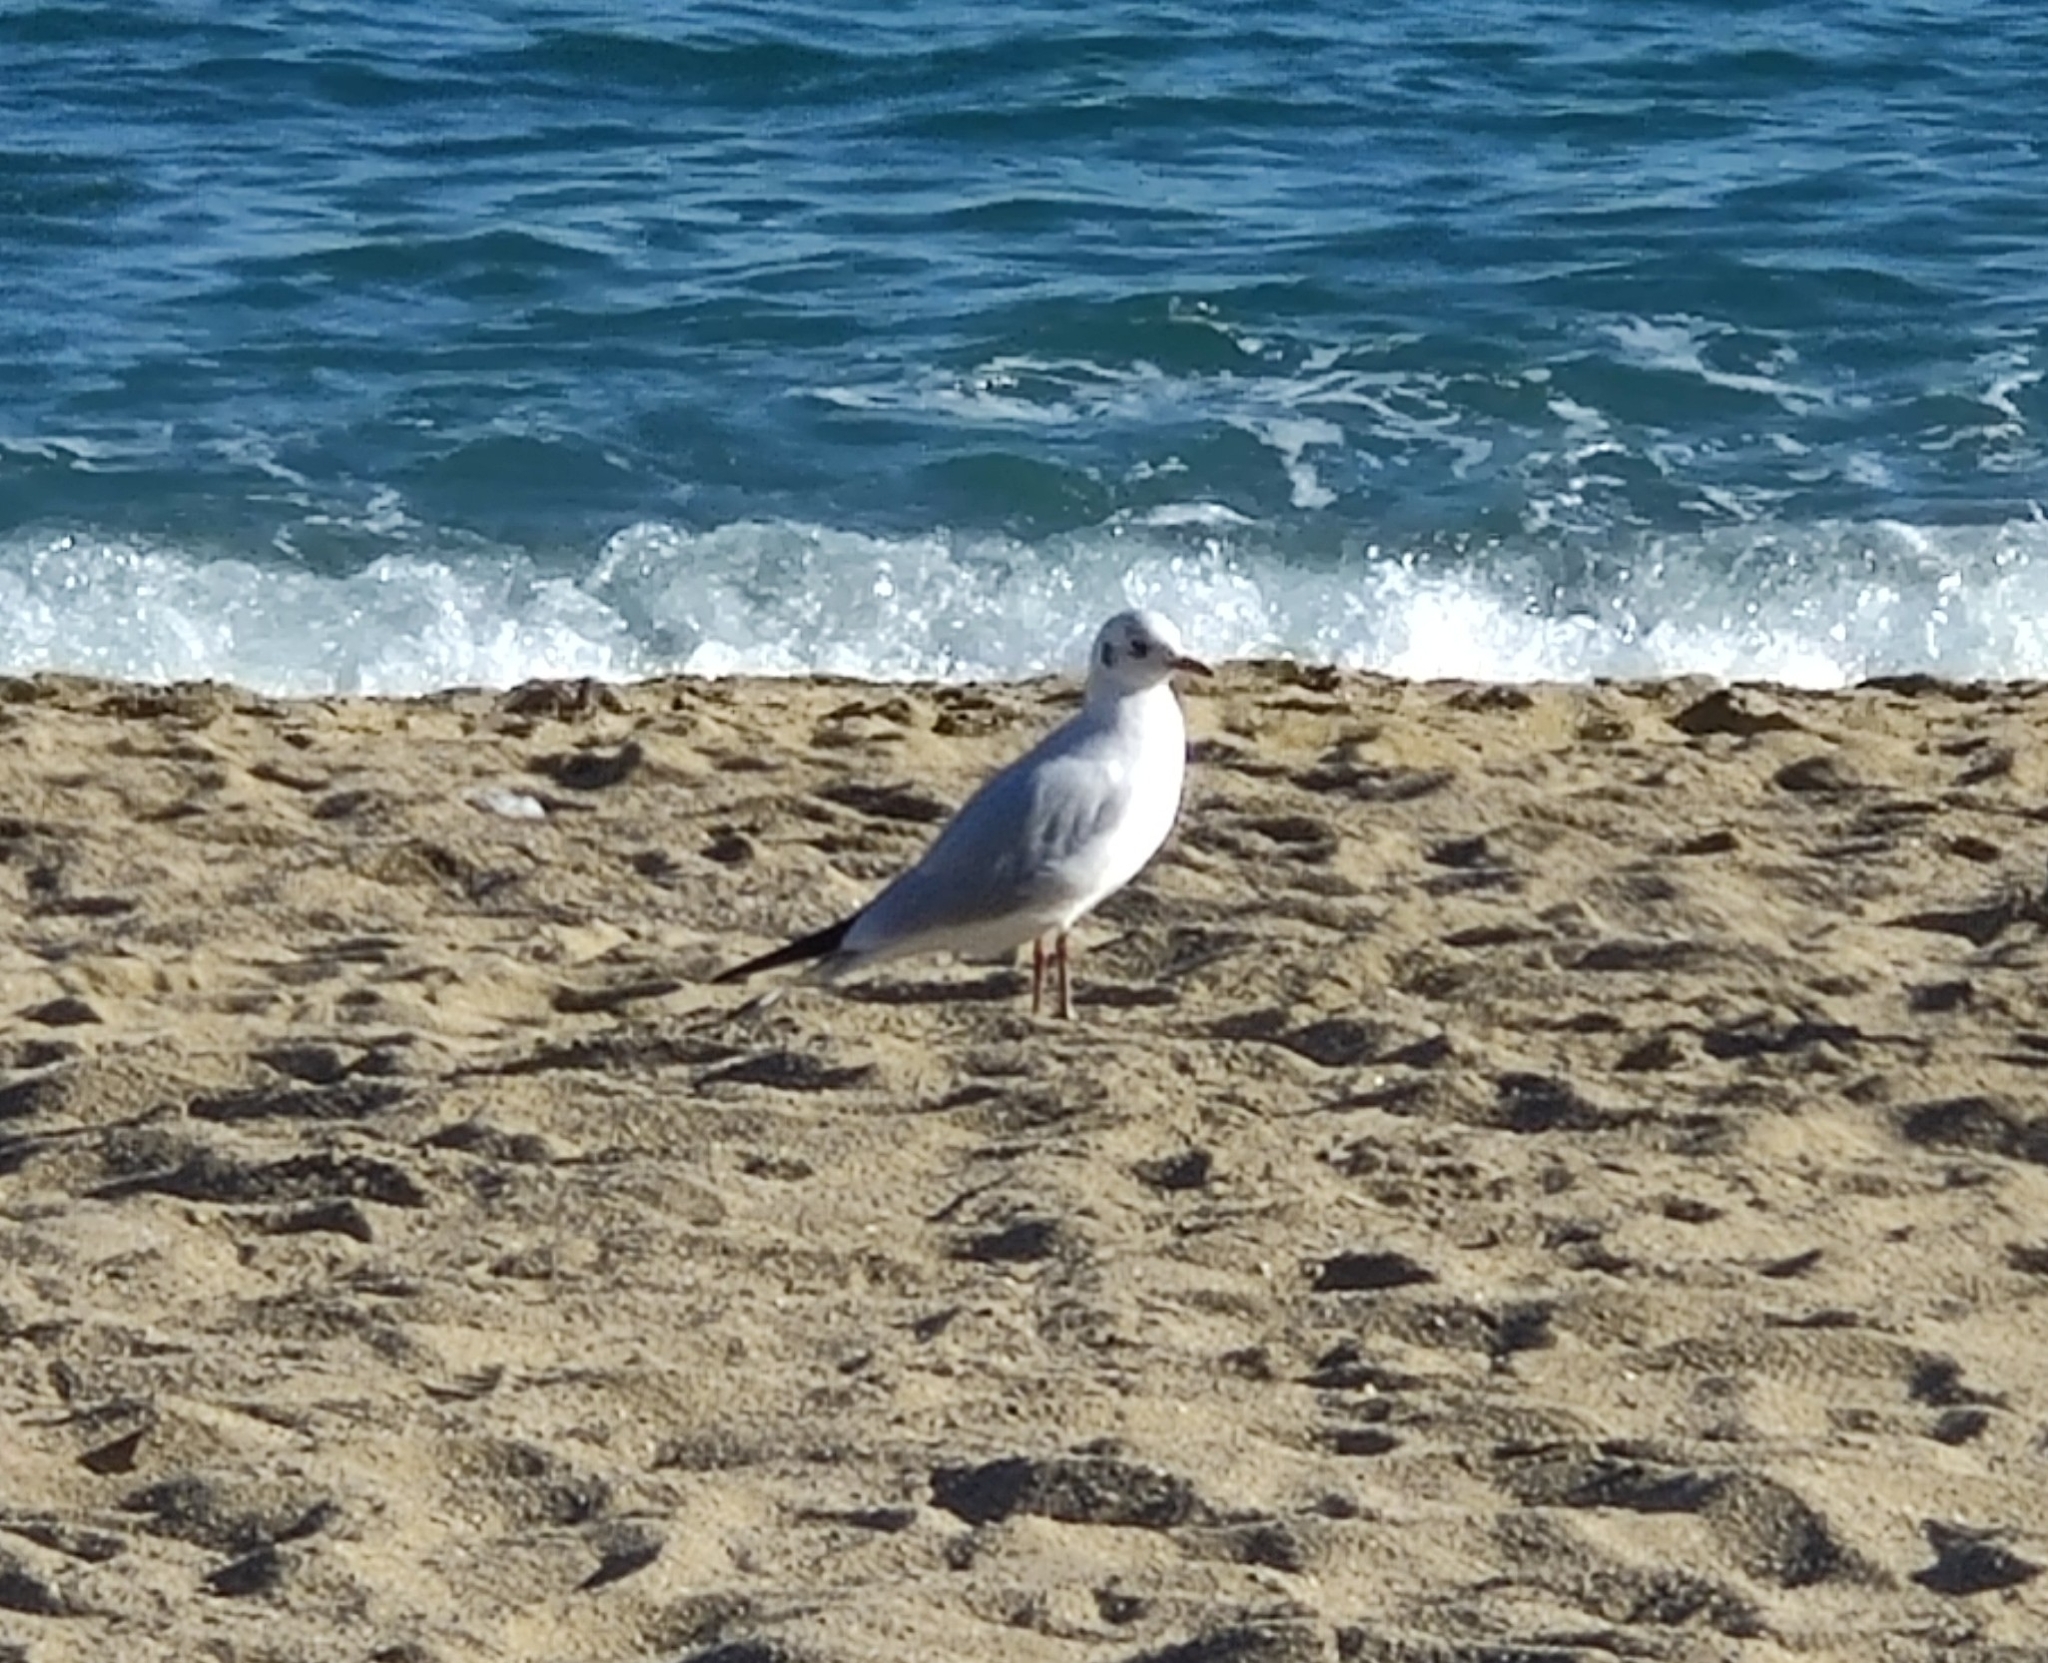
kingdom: Animalia
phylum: Chordata
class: Aves
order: Charadriiformes
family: Laridae
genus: Chroicocephalus
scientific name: Chroicocephalus ridibundus
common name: Black-headed gull
